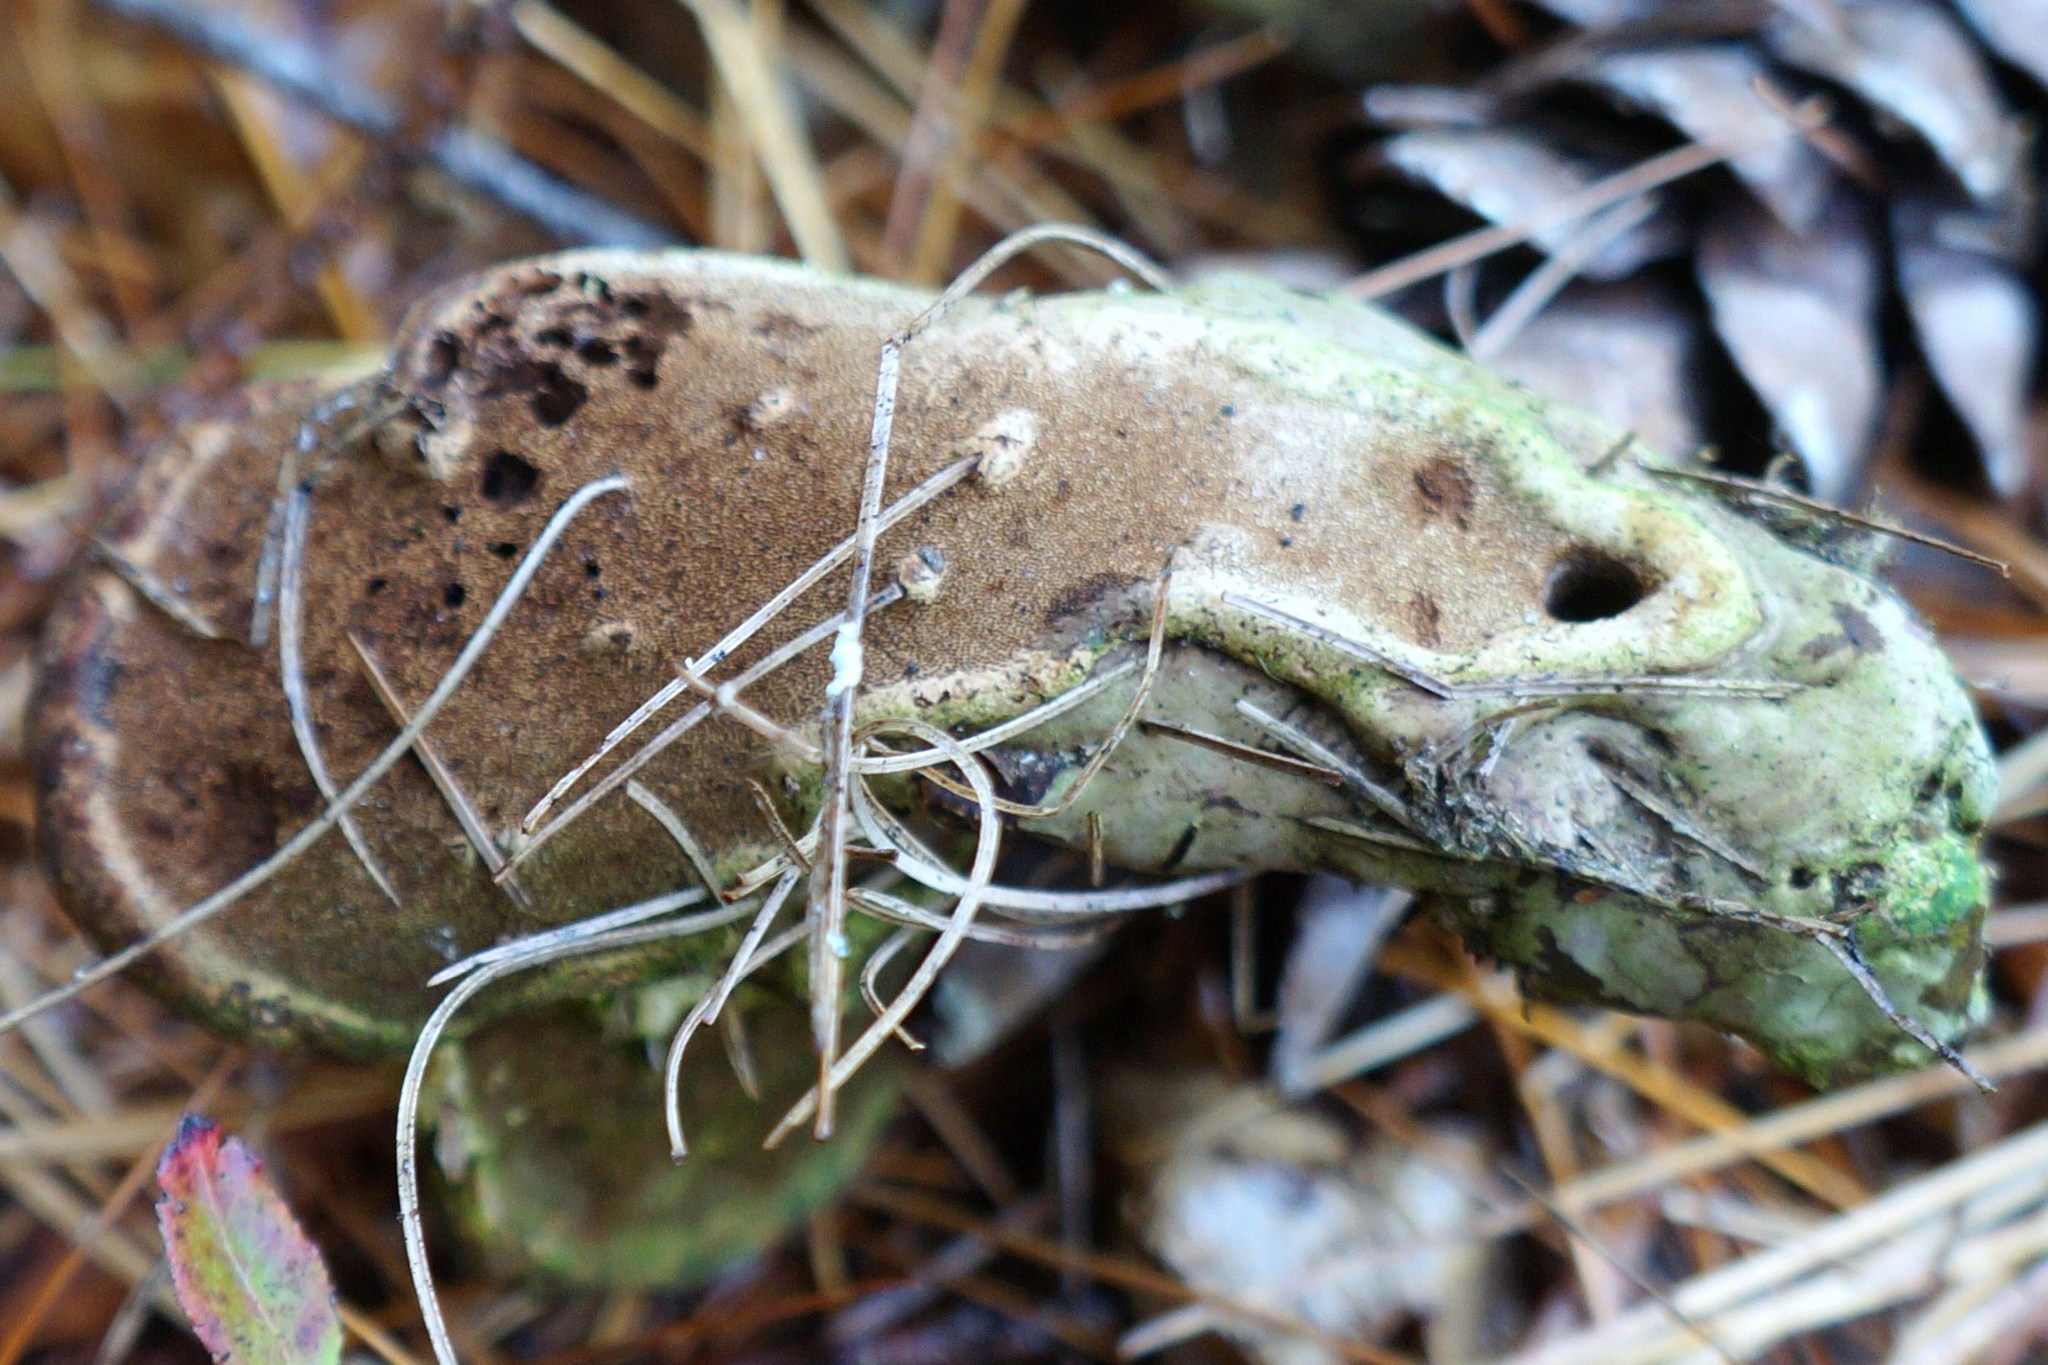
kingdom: Fungi
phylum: Basidiomycota
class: Agaricomycetes
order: Polyporales
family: Polyporaceae
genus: Ganoderma
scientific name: Ganoderma applanatum
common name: Artist's bracket
